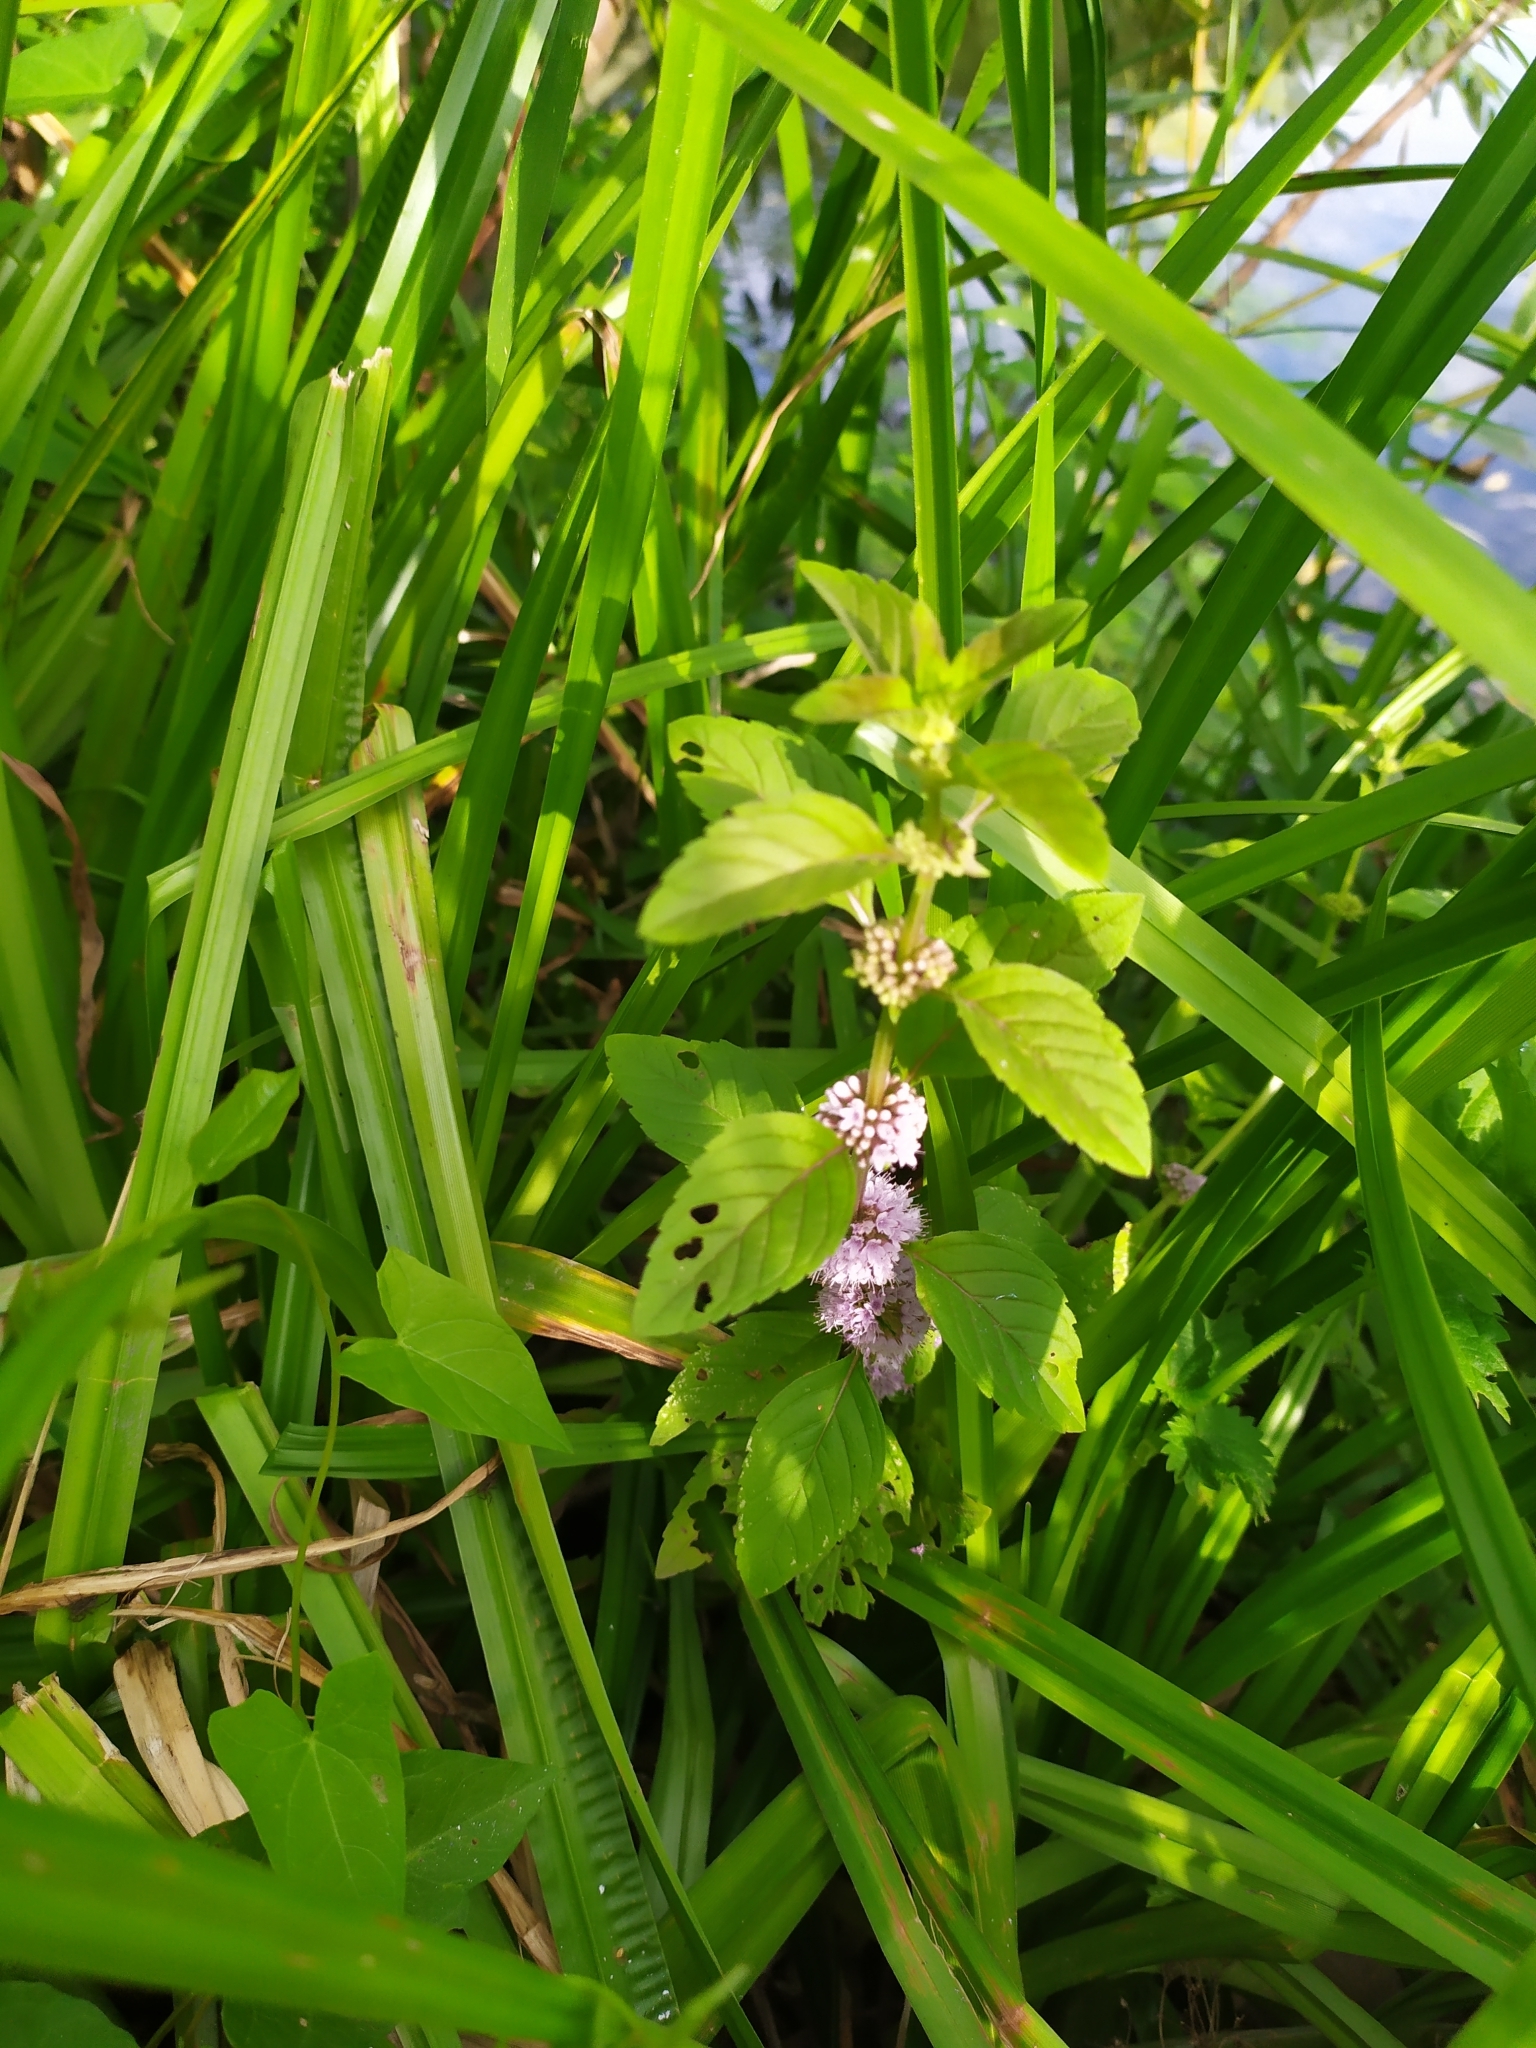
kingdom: Plantae
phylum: Tracheophyta
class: Magnoliopsida
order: Lamiales
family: Lamiaceae
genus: Mentha
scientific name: Mentha arvensis
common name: Corn mint
